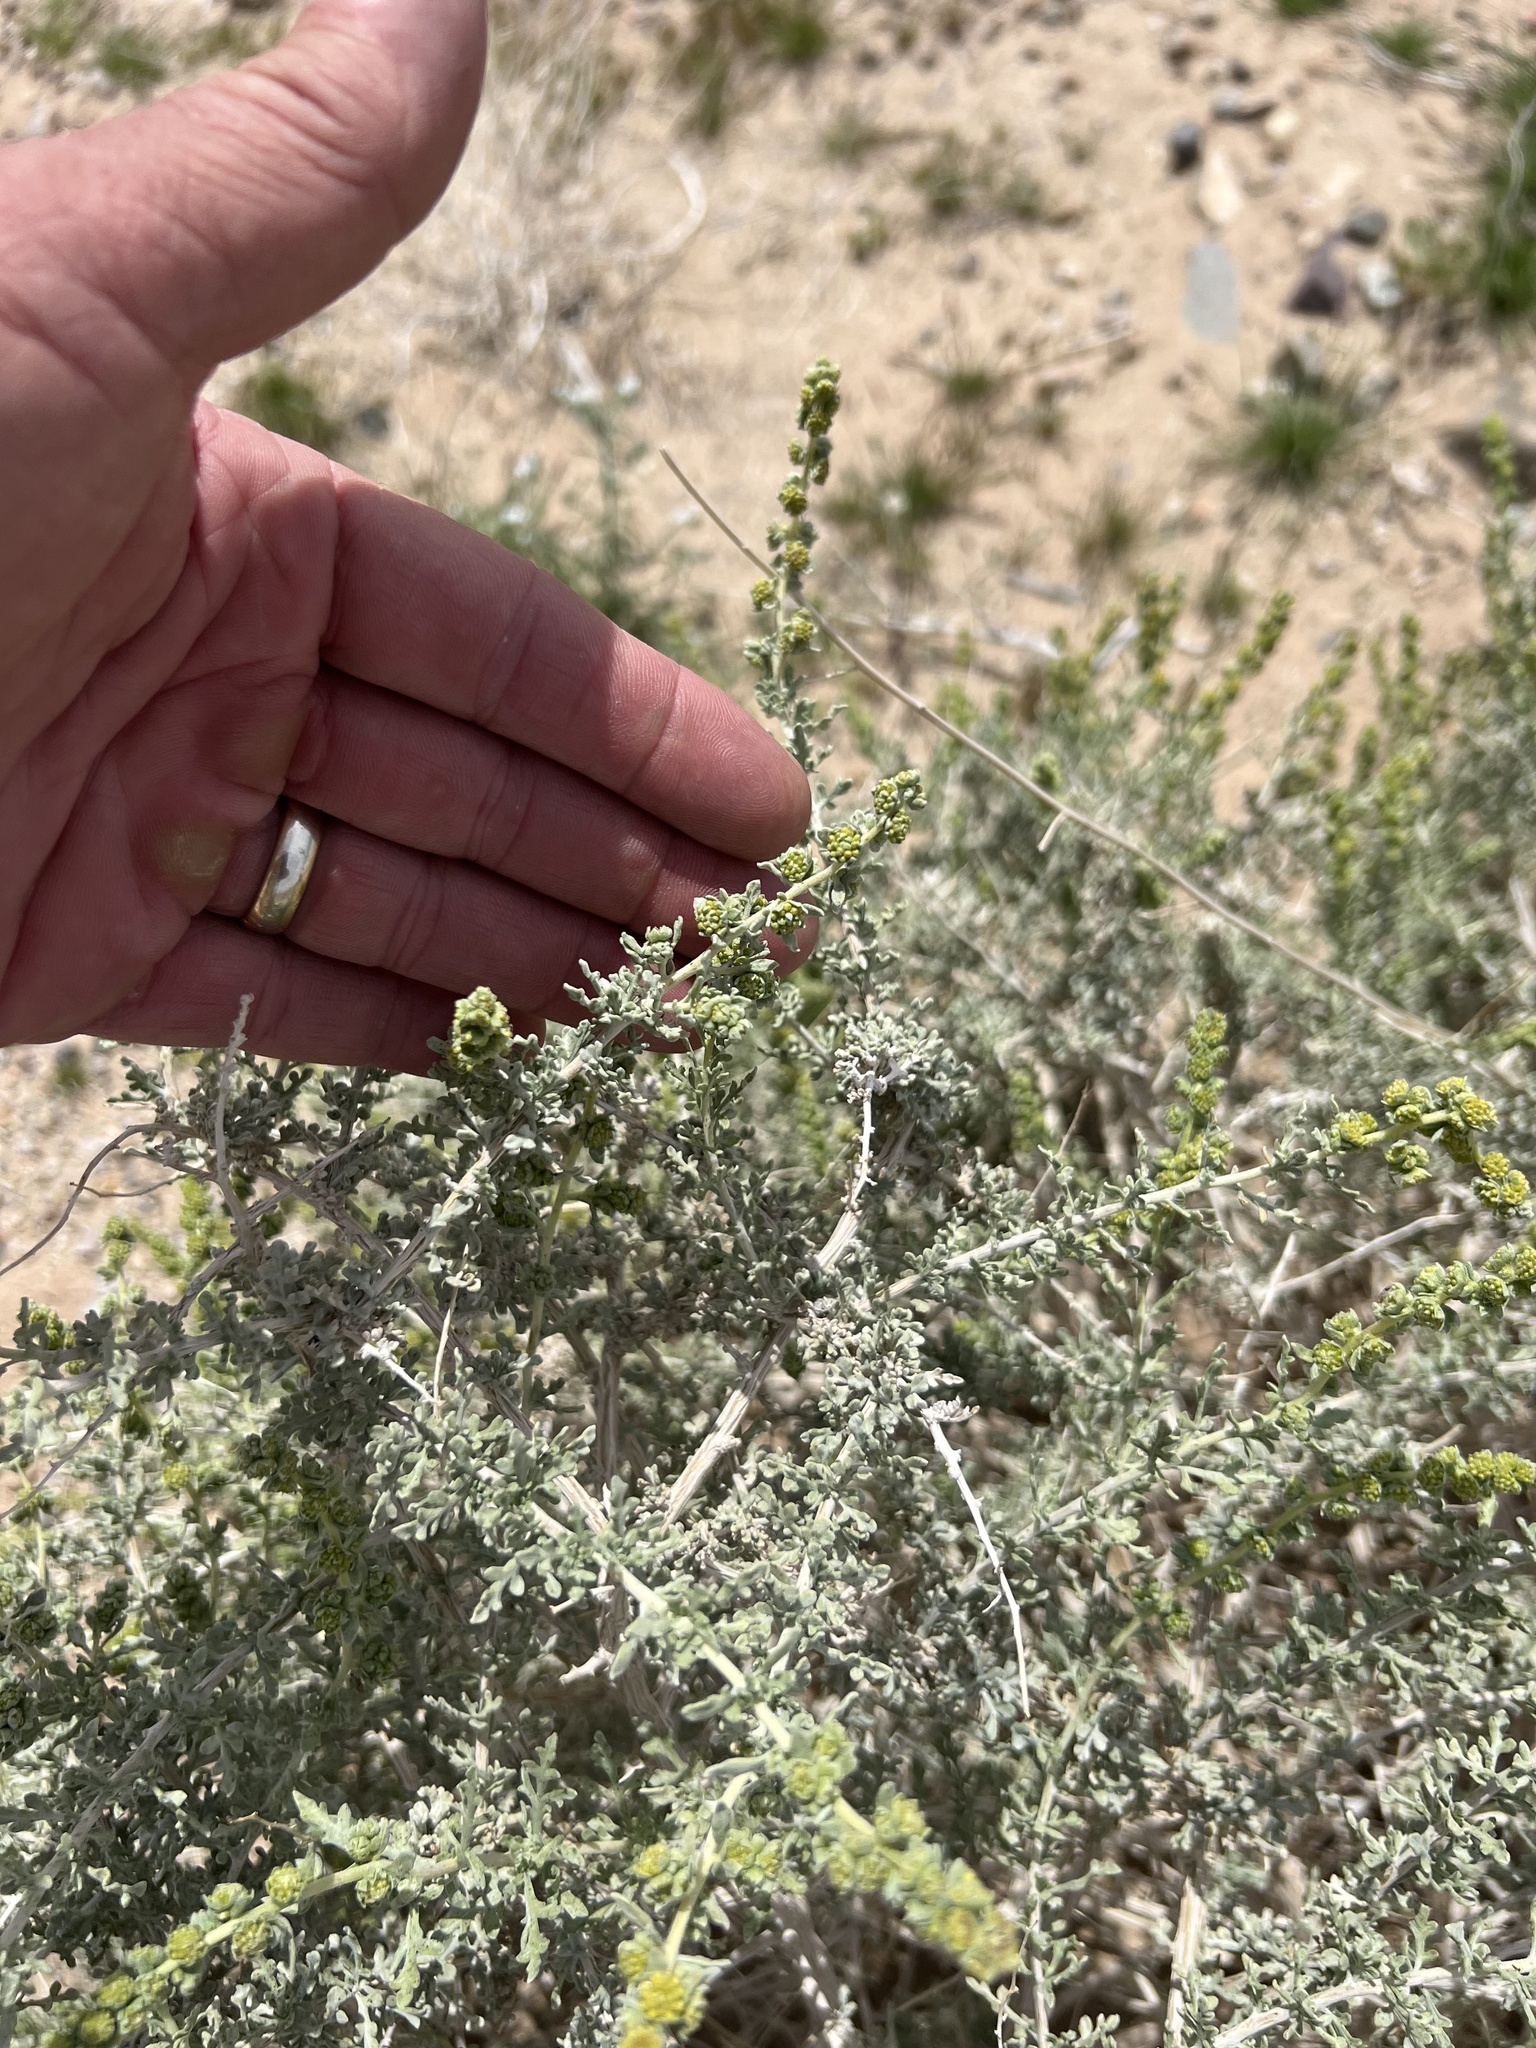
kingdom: Plantae
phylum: Tracheophyta
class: Magnoliopsida
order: Asterales
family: Asteraceae
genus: Ambrosia
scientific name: Ambrosia dumosa
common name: Bur-sage
